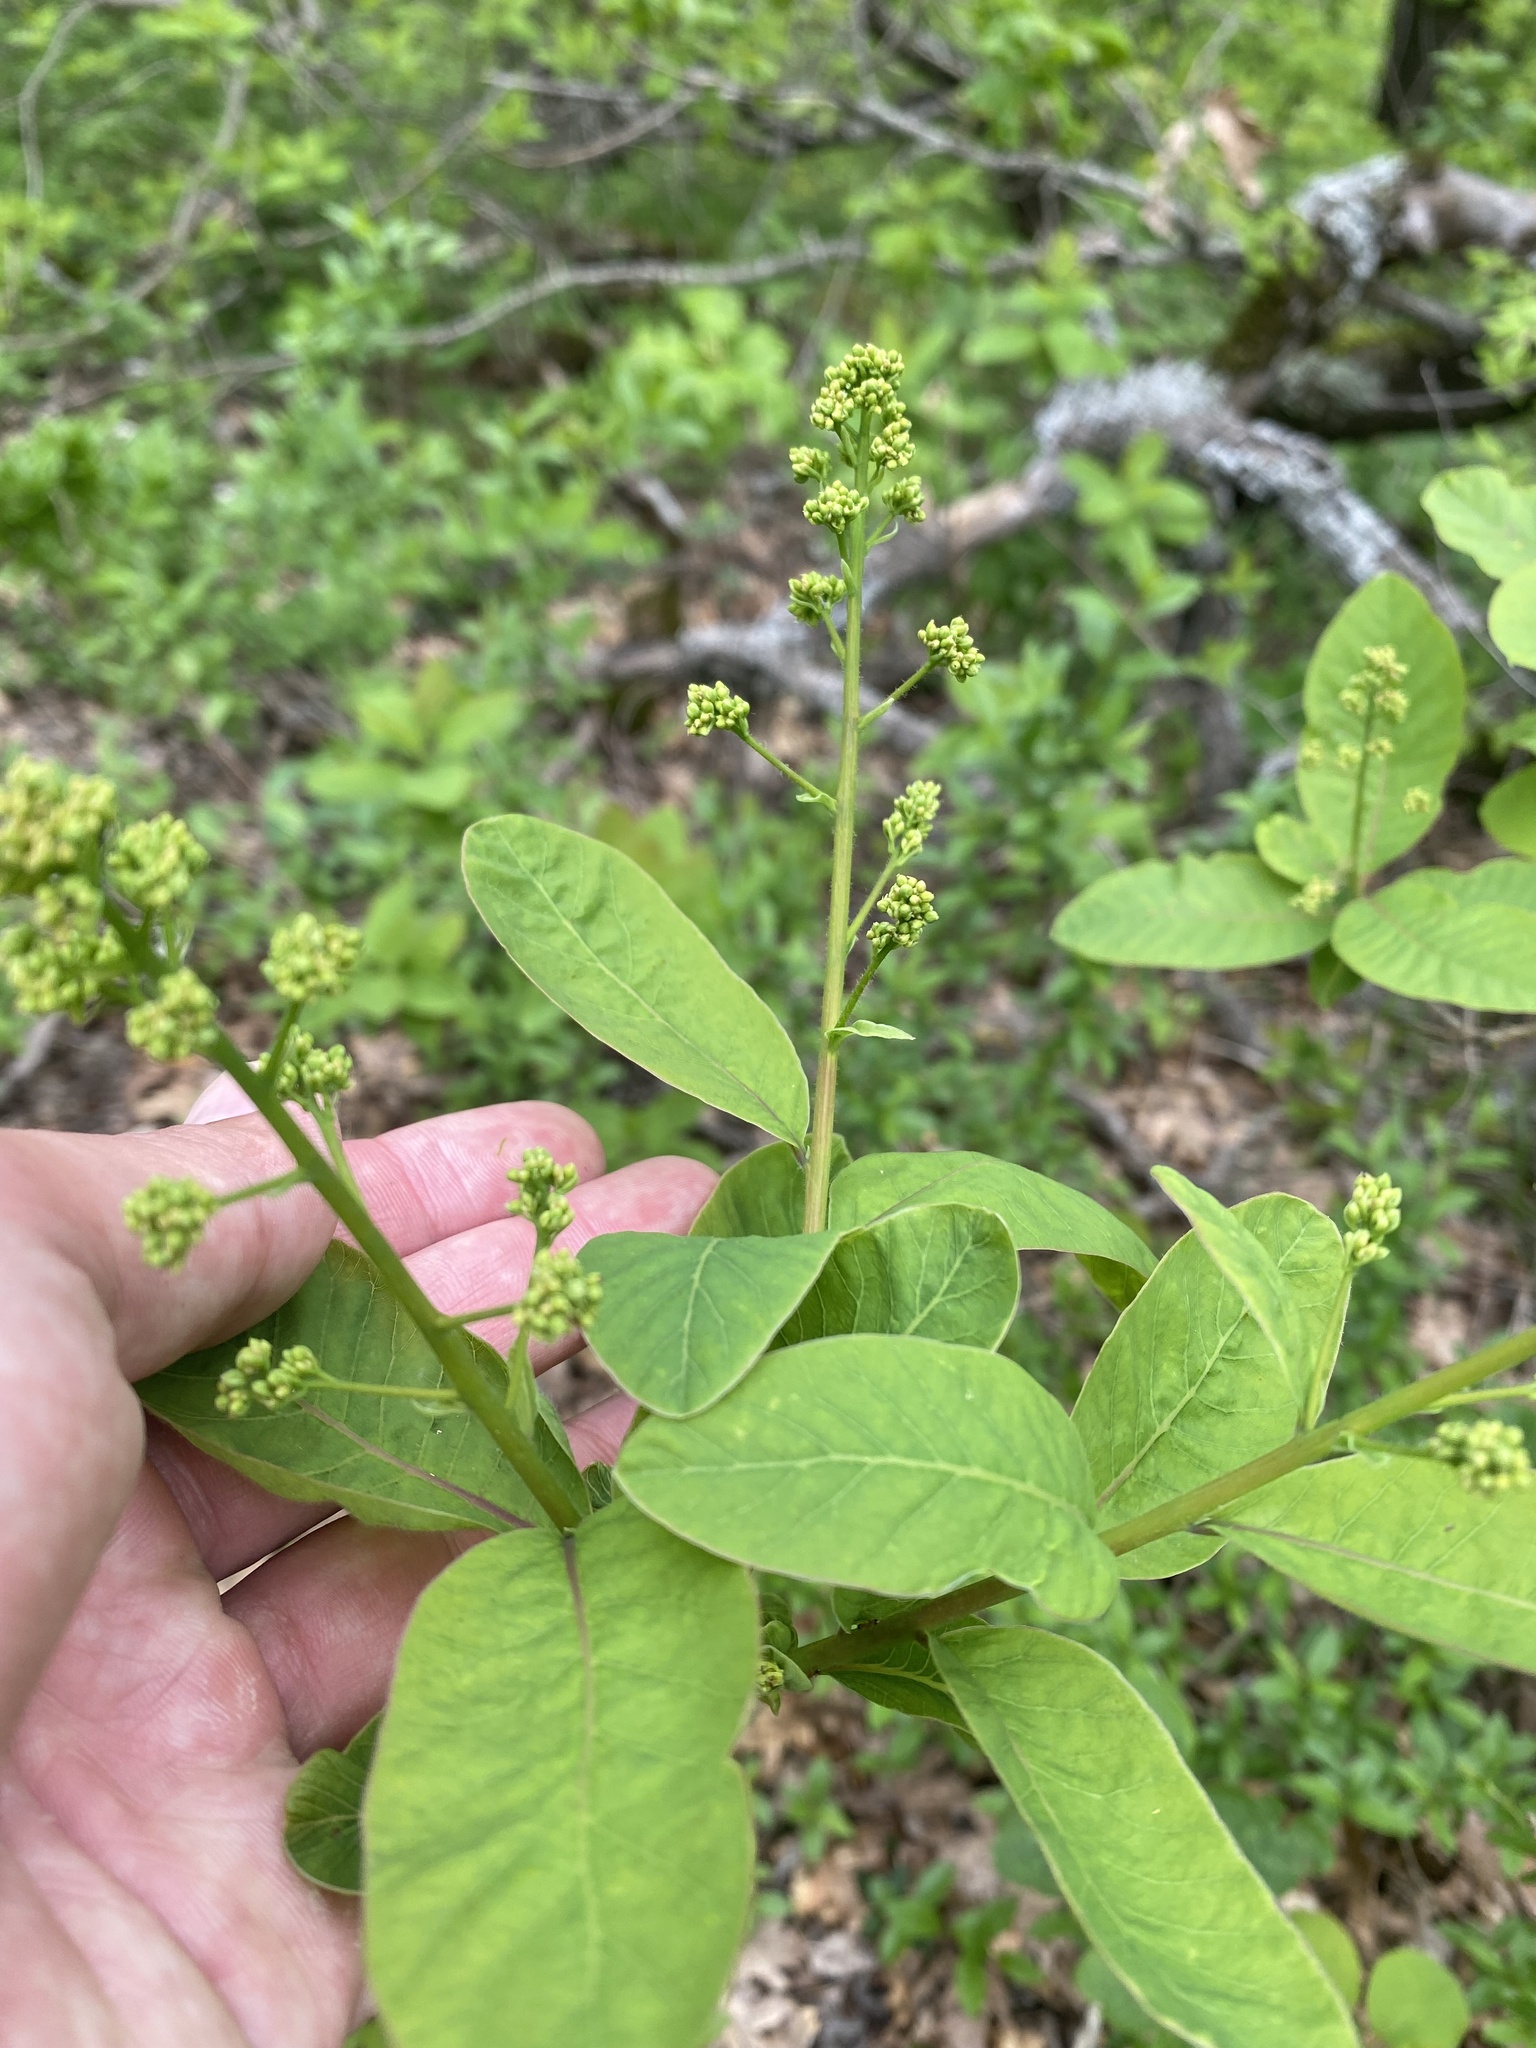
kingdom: Plantae
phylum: Tracheophyta
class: Magnoliopsida
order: Sapindales
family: Anacardiaceae
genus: Cotinus
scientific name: Cotinus coggygria
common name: Smoke-tree
